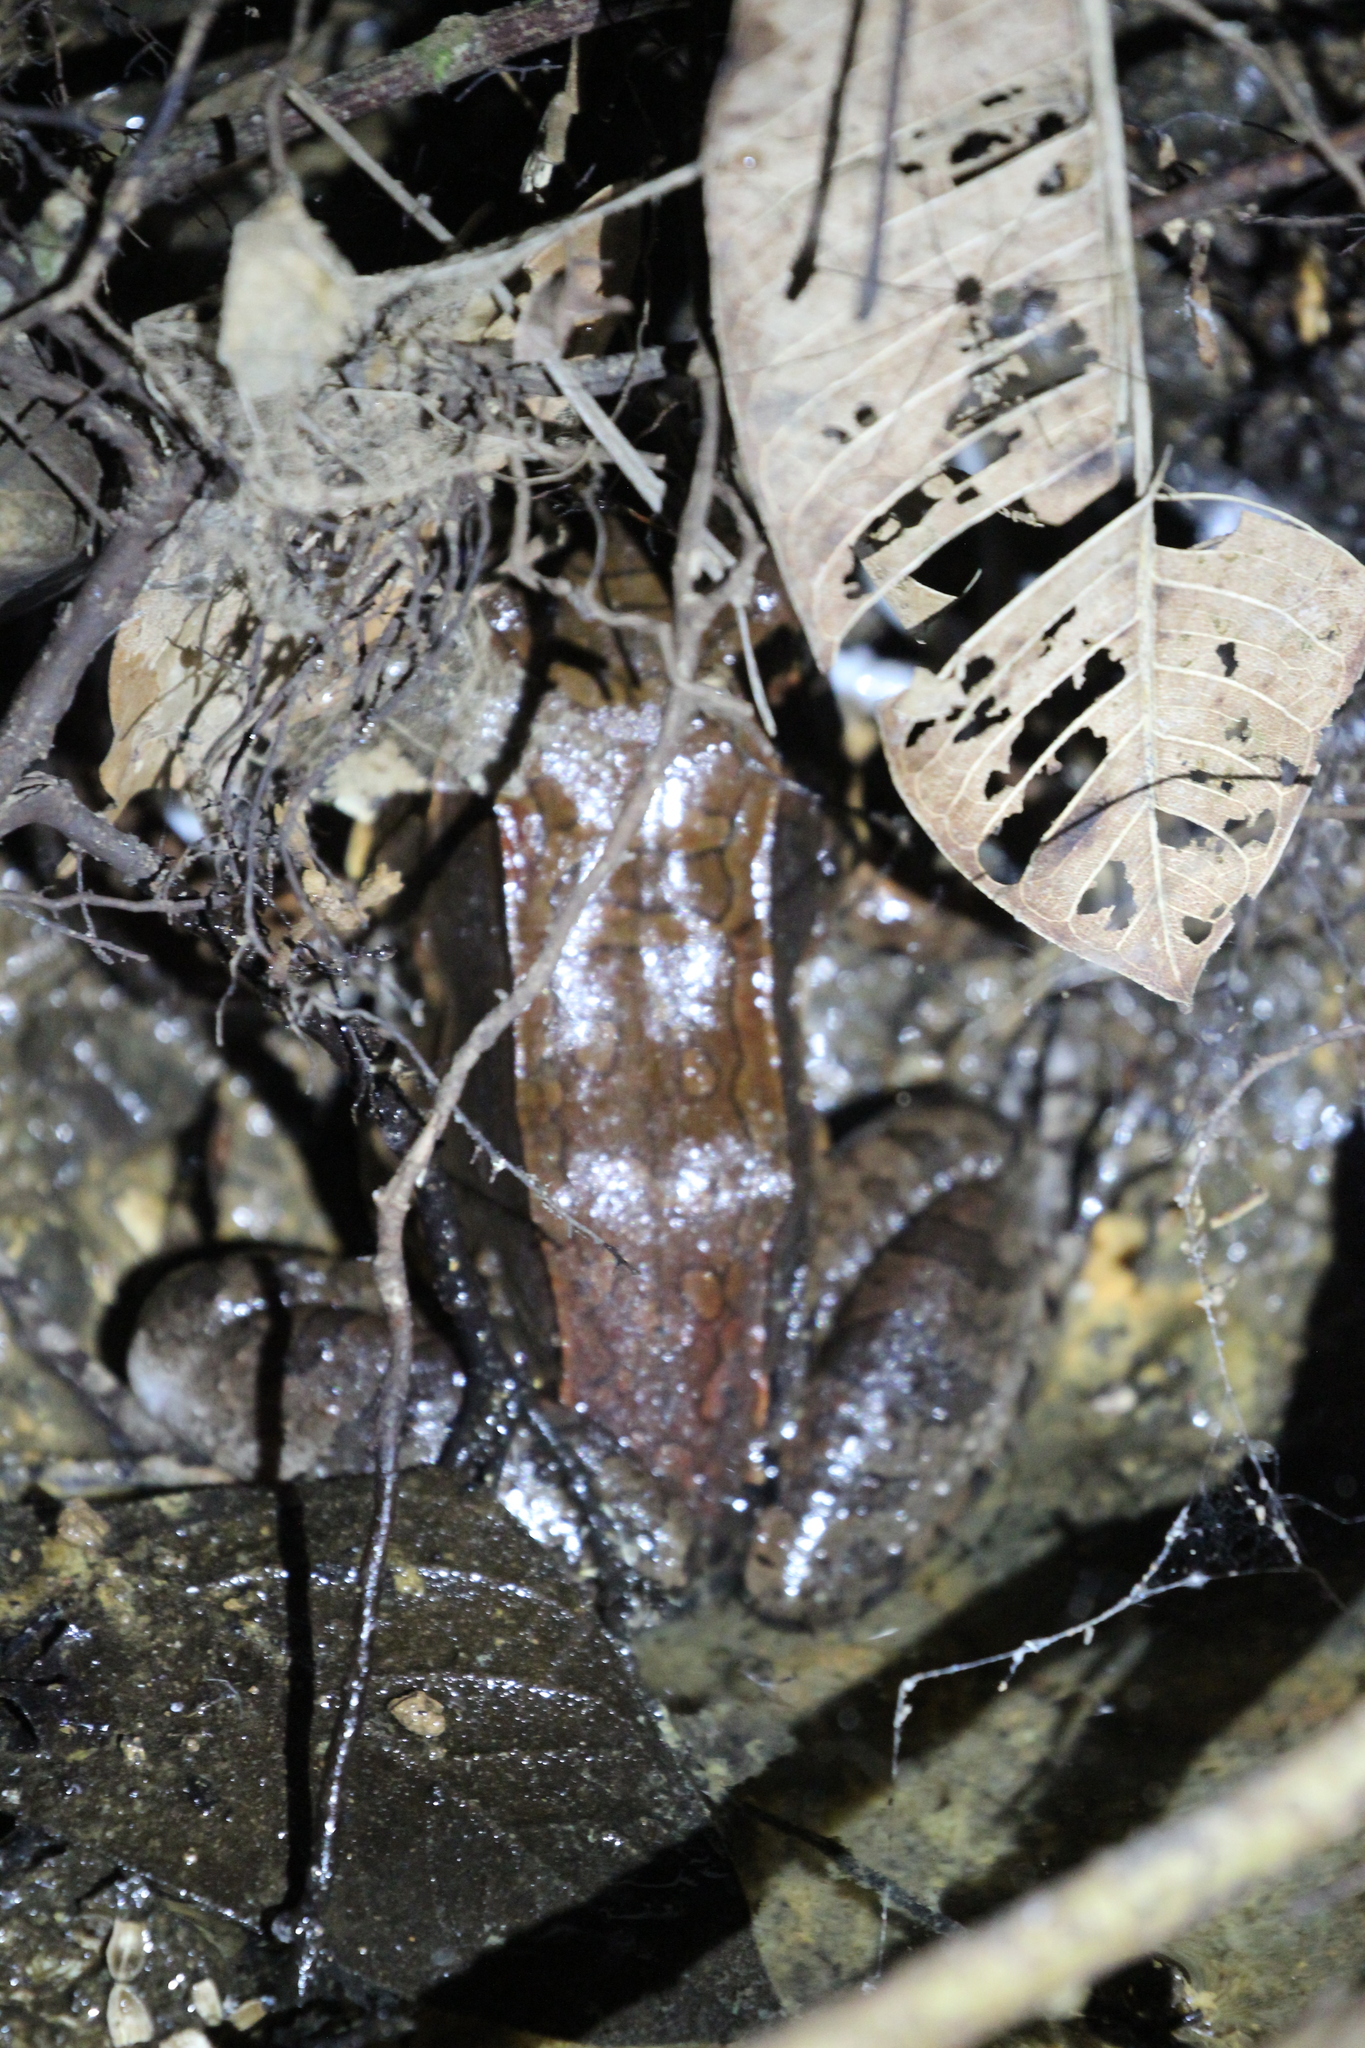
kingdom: Animalia
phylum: Chordata
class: Amphibia
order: Anura
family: Leptodactylidae
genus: Leptodactylus
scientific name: Leptodactylus savagei
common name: Savage's thin-toed frog
